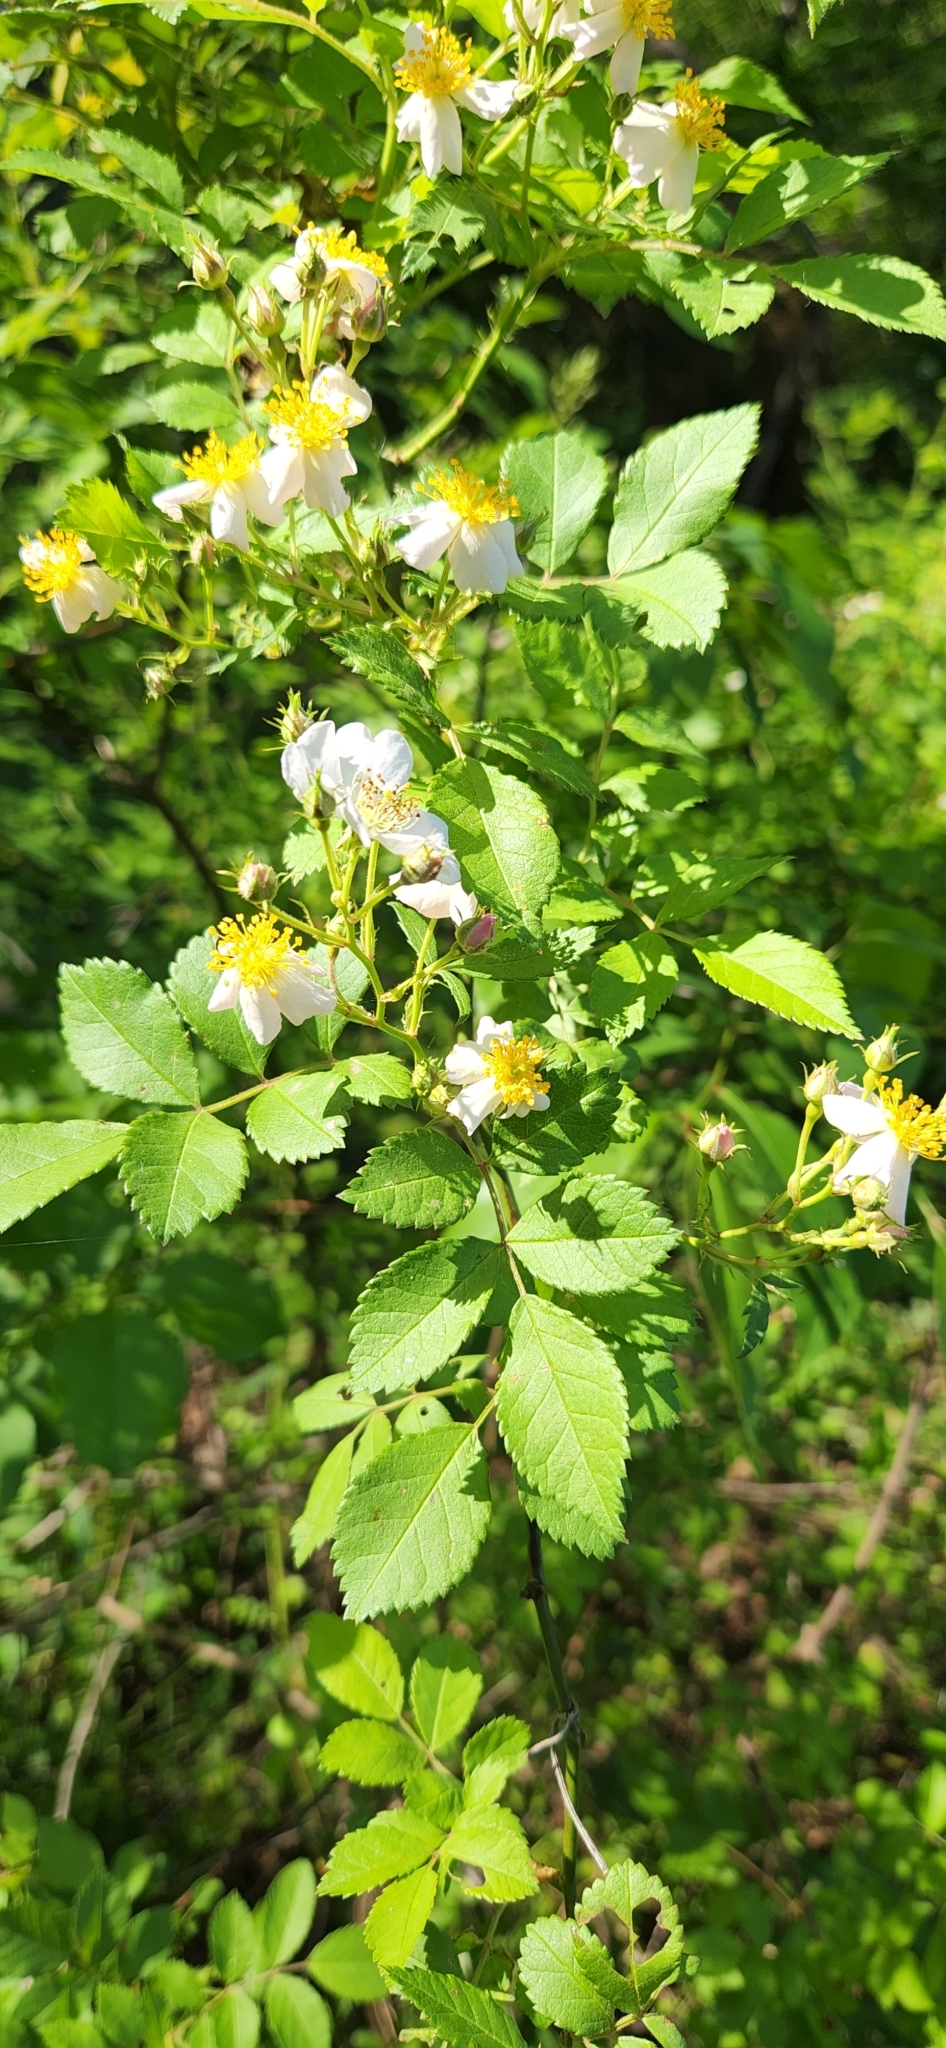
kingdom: Plantae
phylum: Tracheophyta
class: Magnoliopsida
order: Rosales
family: Rosaceae
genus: Rosa
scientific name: Rosa multiflora
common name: Multiflora rose
